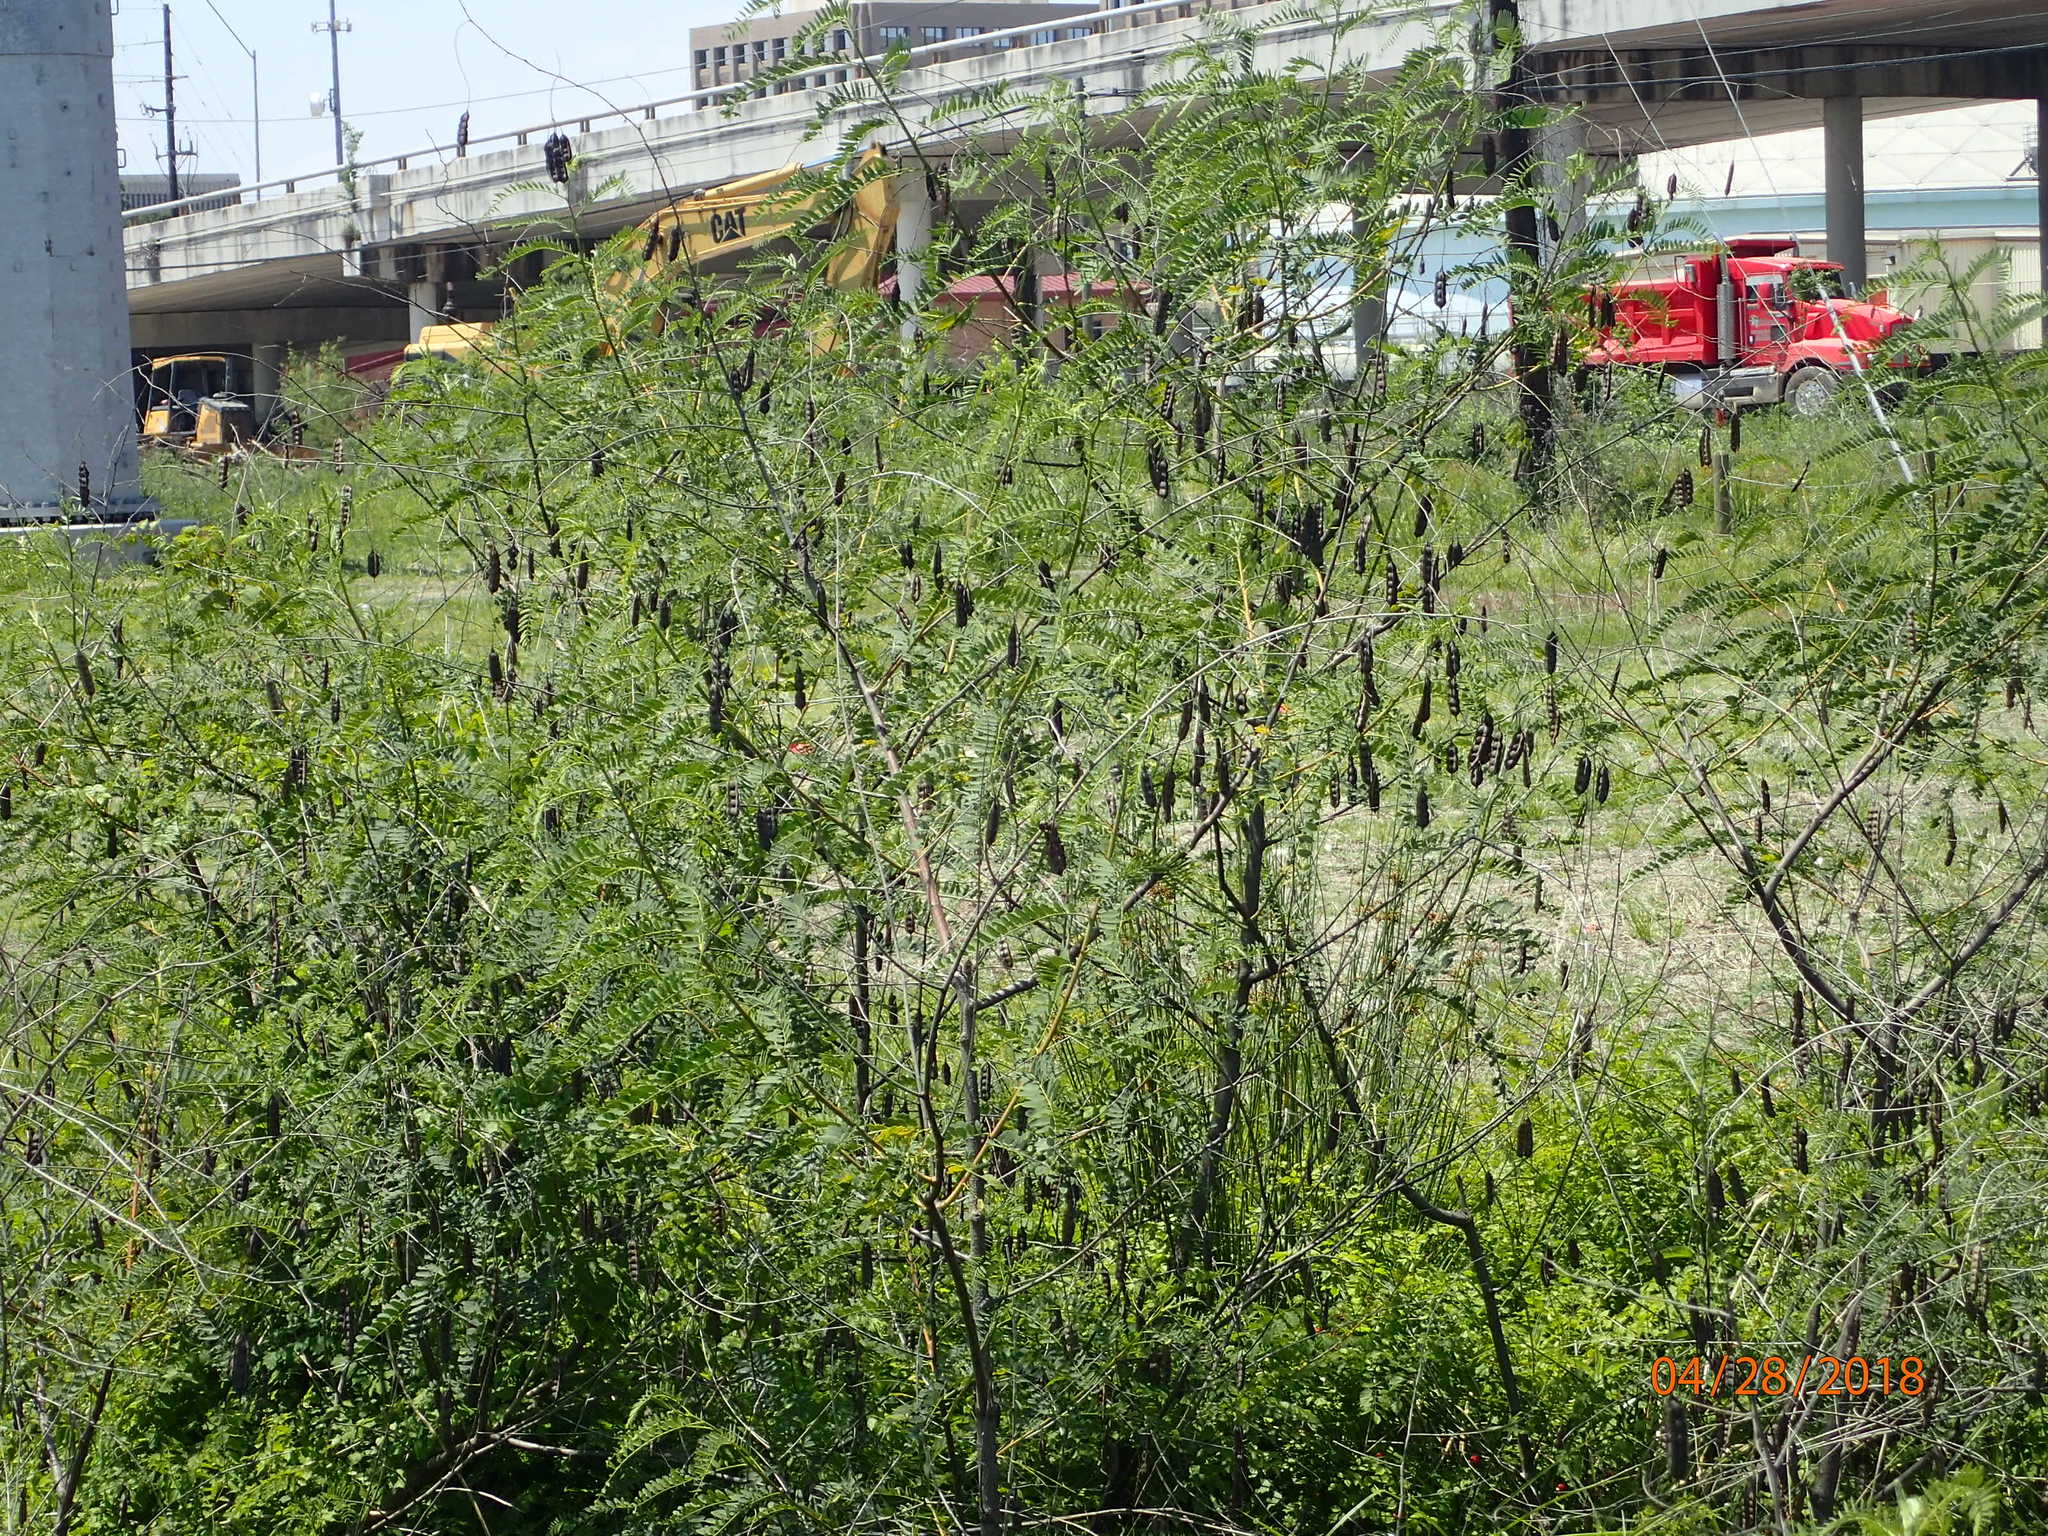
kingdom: Plantae
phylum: Tracheophyta
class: Magnoliopsida
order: Fabales
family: Fabaceae
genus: Sesbania
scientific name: Sesbania drummondii
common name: Poison-bean
